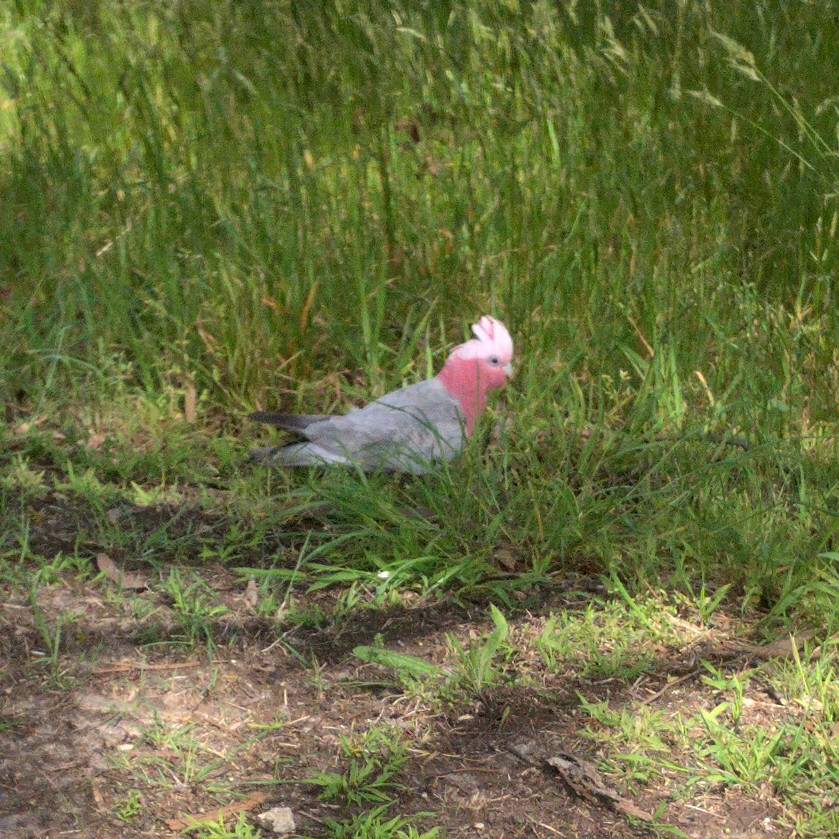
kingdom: Animalia
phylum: Chordata
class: Aves
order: Psittaciformes
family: Psittacidae
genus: Eolophus
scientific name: Eolophus roseicapilla
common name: Galah
